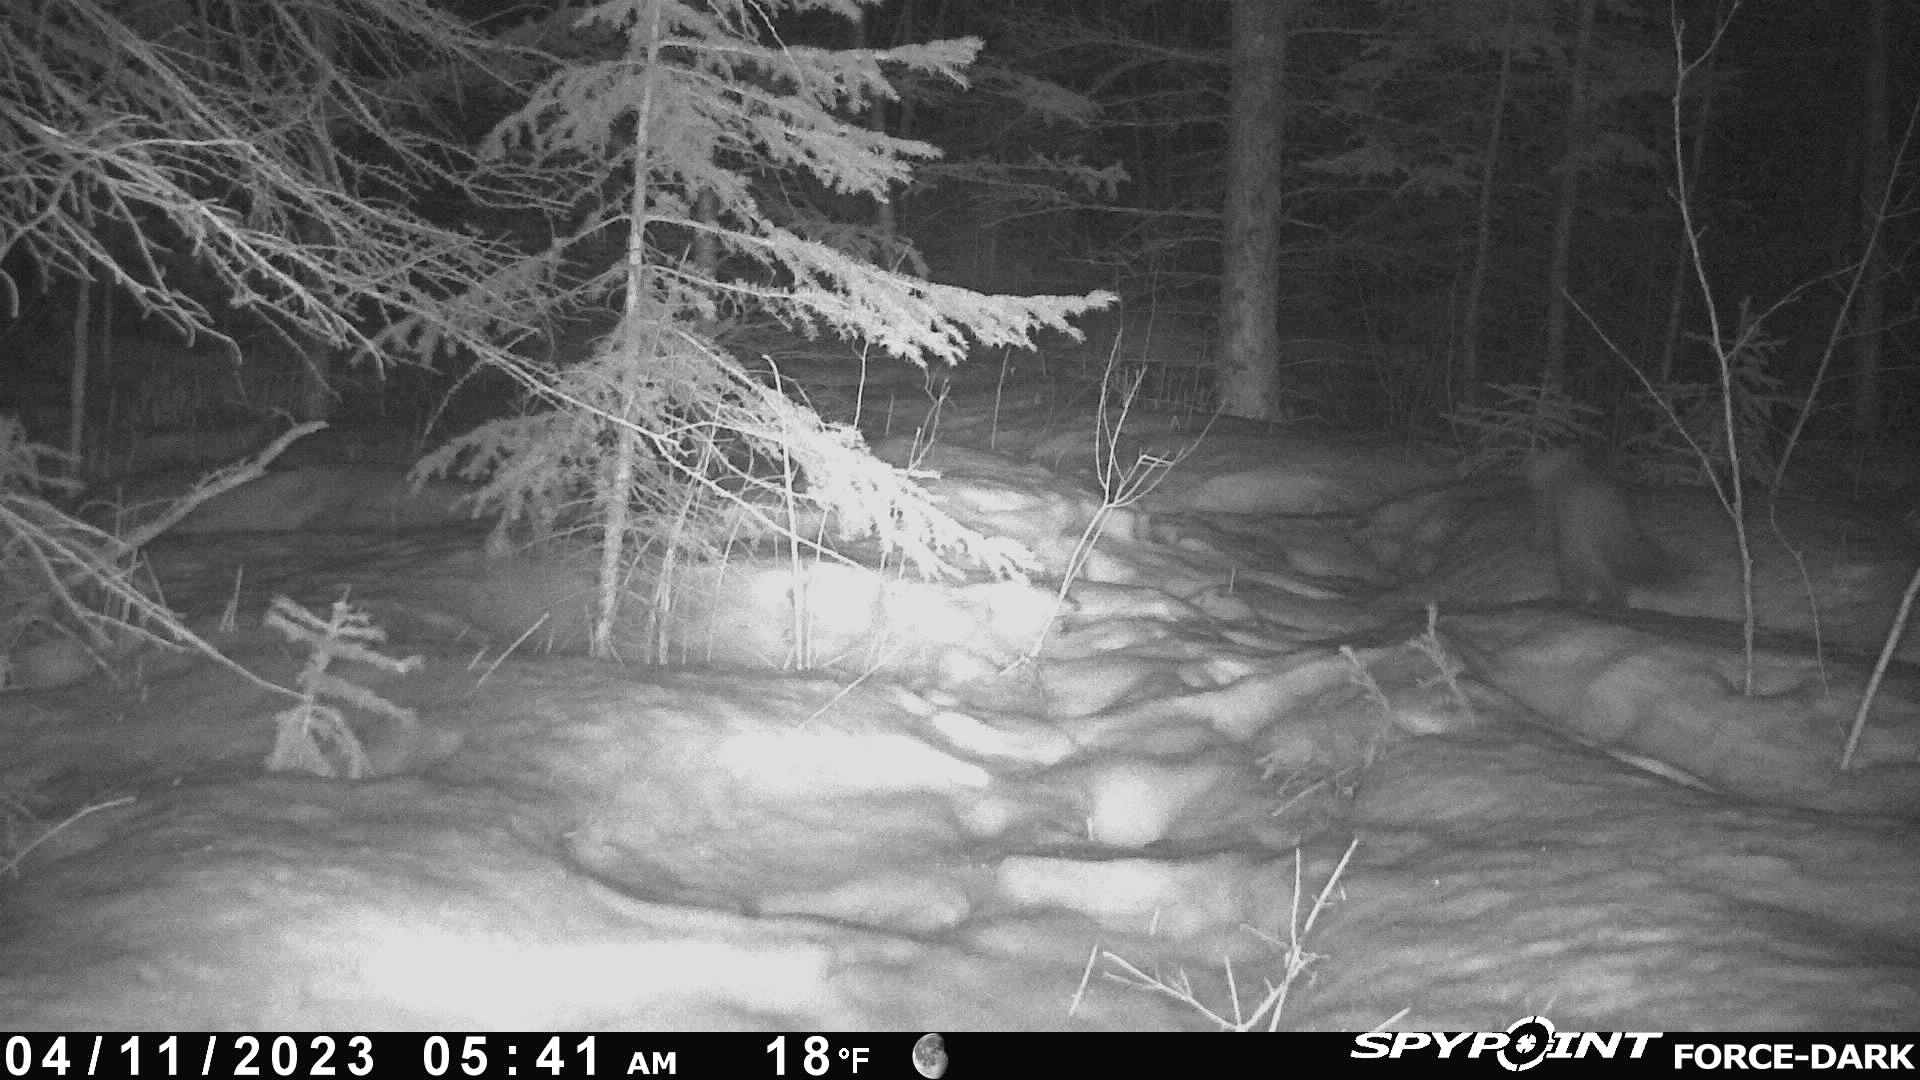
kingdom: Animalia
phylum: Chordata
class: Mammalia
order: Carnivora
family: Mustelidae
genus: Martes
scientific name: Martes americana
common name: American marten
